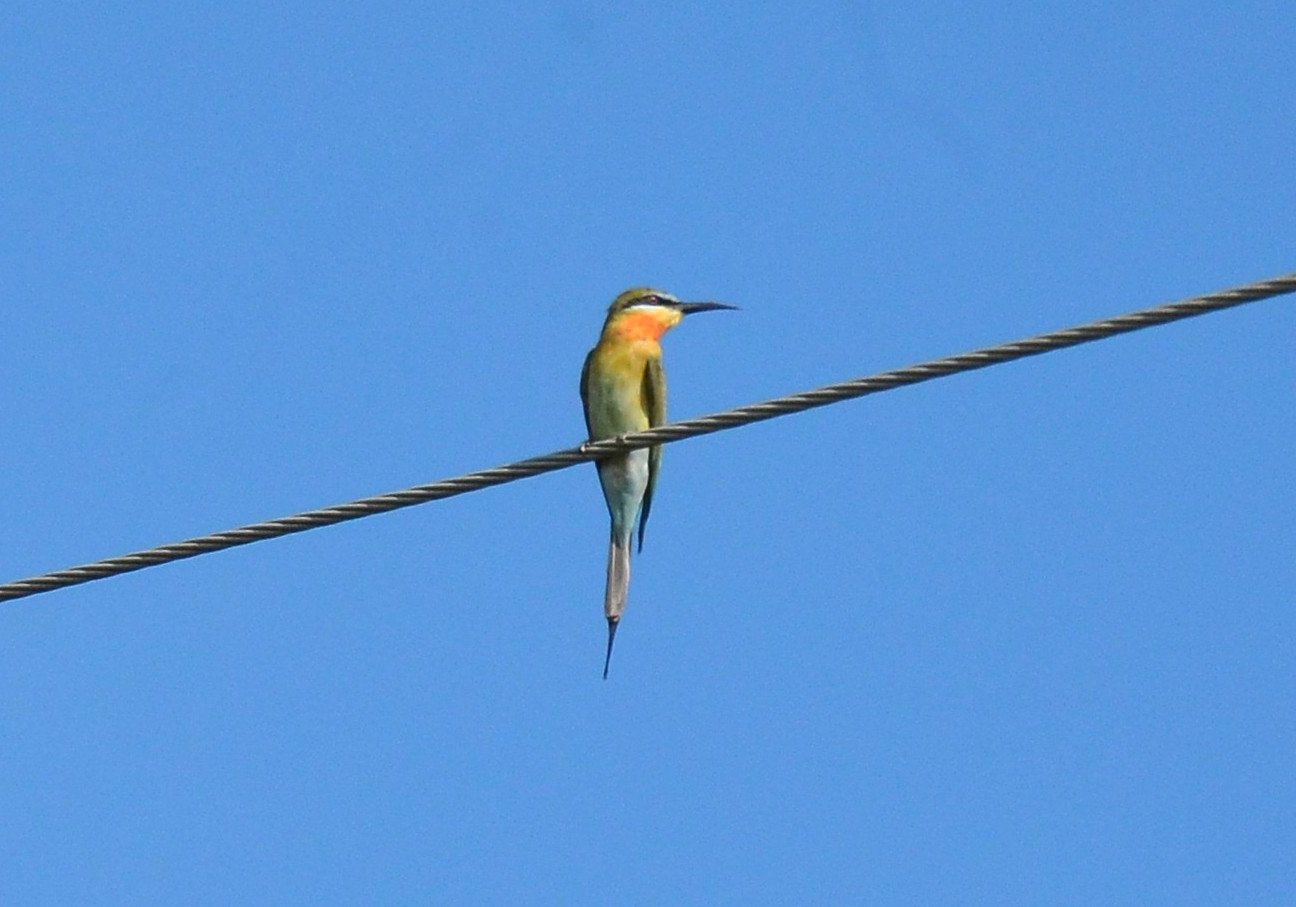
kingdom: Animalia
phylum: Chordata
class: Aves
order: Coraciiformes
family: Meropidae
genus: Merops
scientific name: Merops philippinus
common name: Blue-tailed bee-eater
